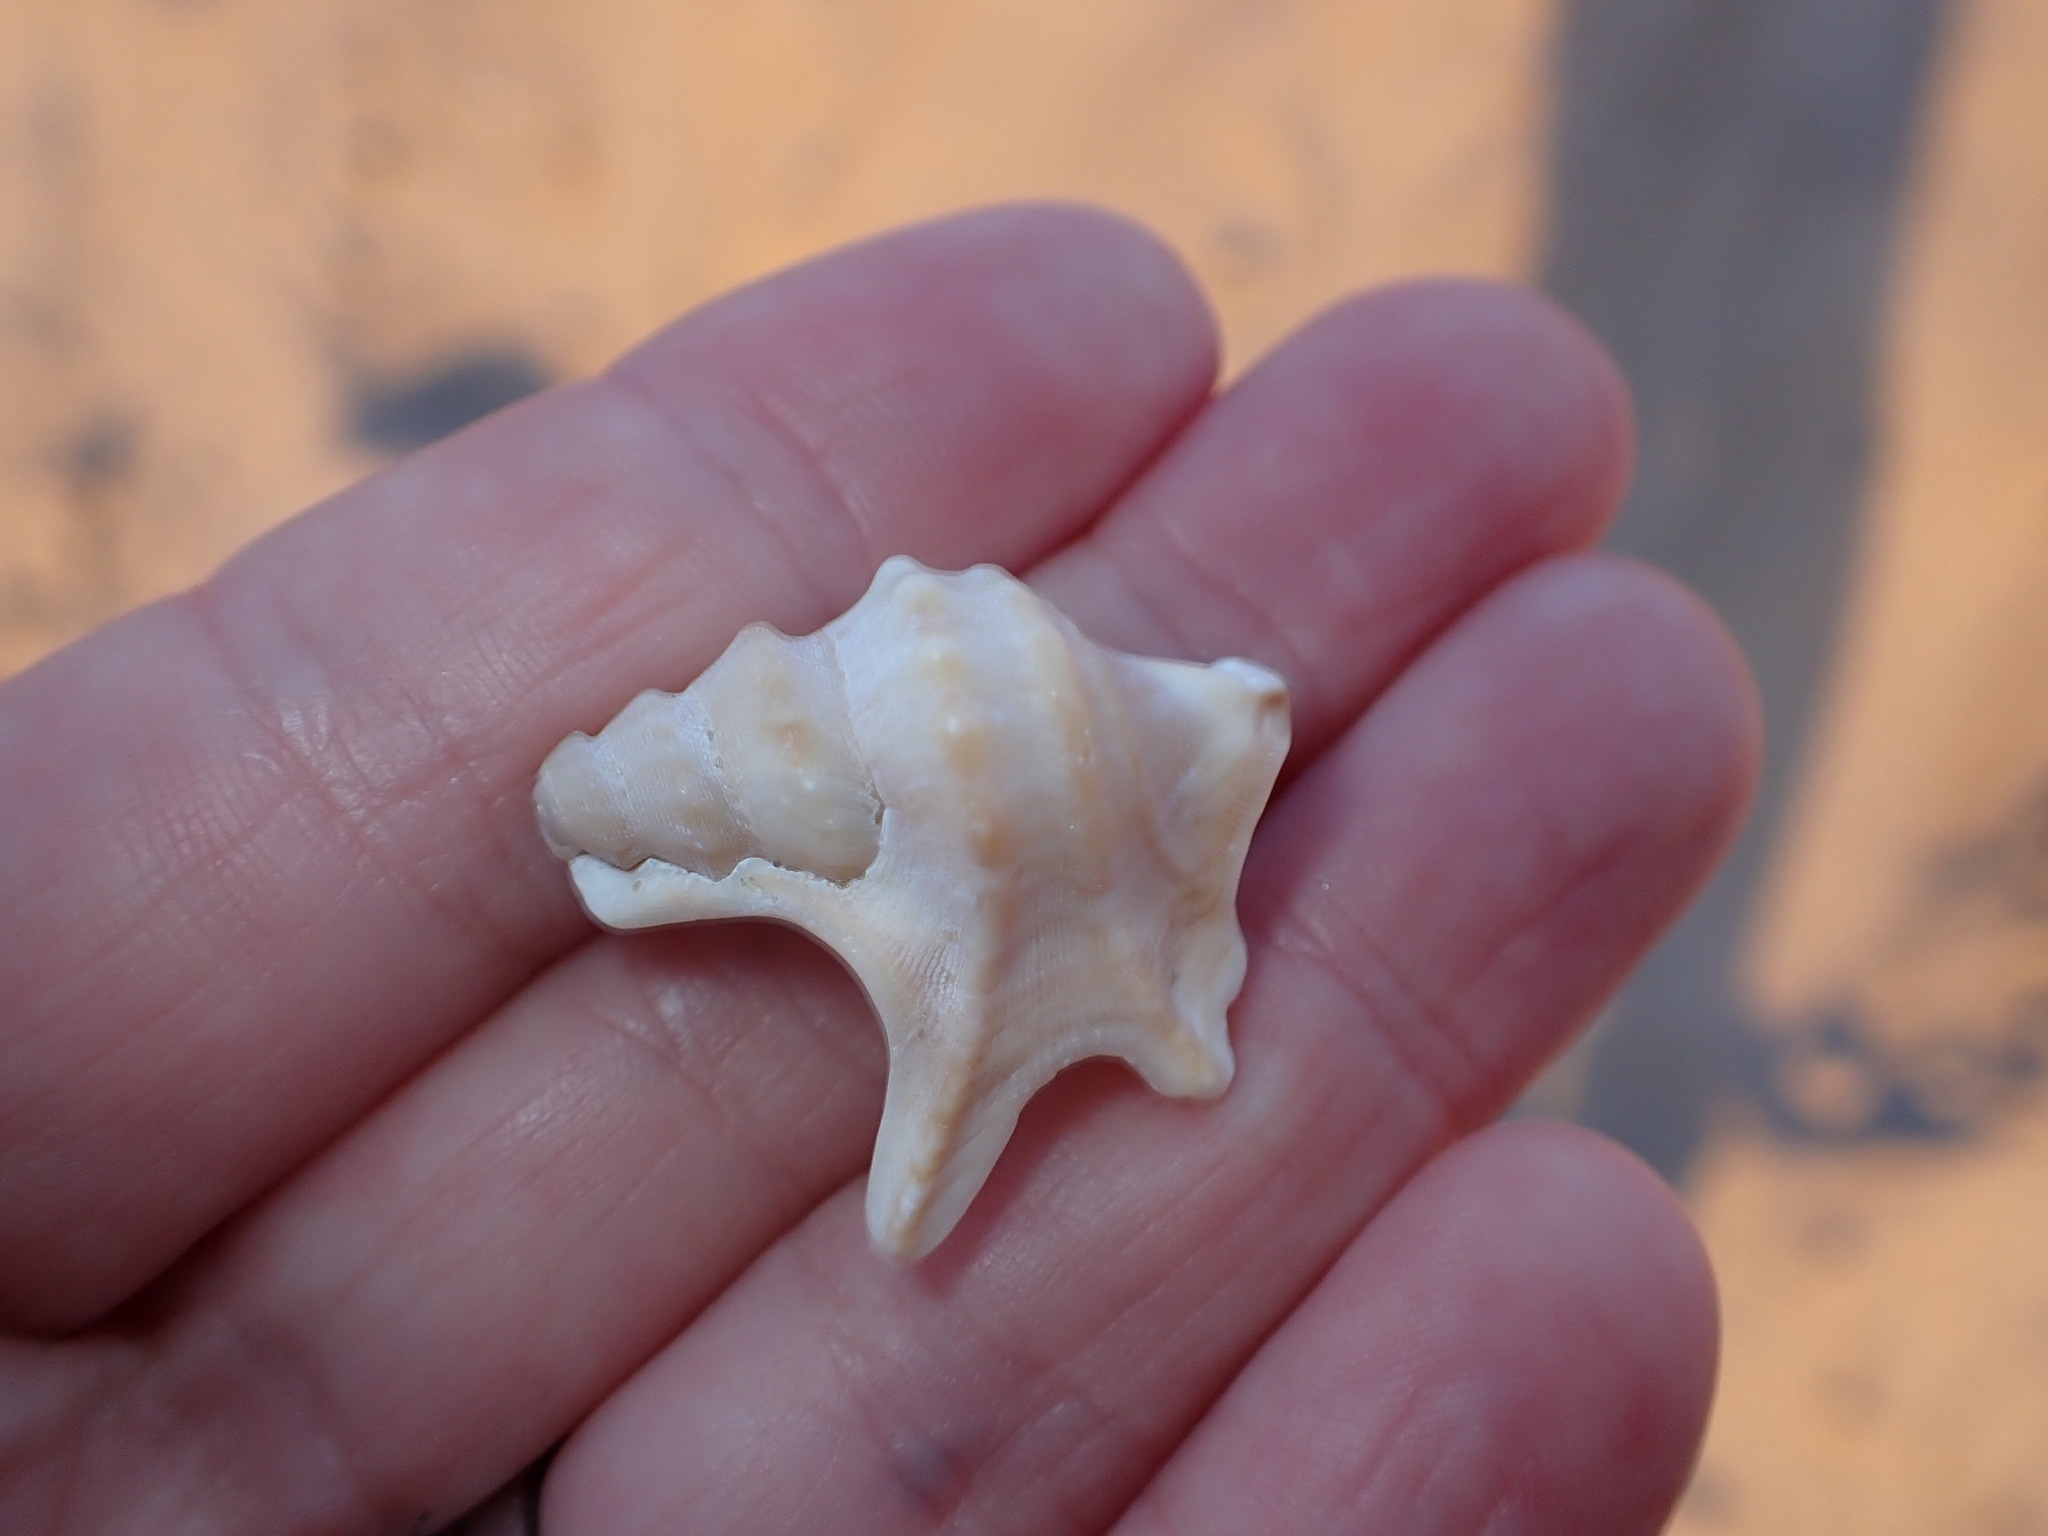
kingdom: Animalia
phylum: Mollusca
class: Gastropoda
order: Littorinimorpha
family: Aporrhaidae
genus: Aporrhais
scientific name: Aporrhais pespelecani
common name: Common pelican’s foot
